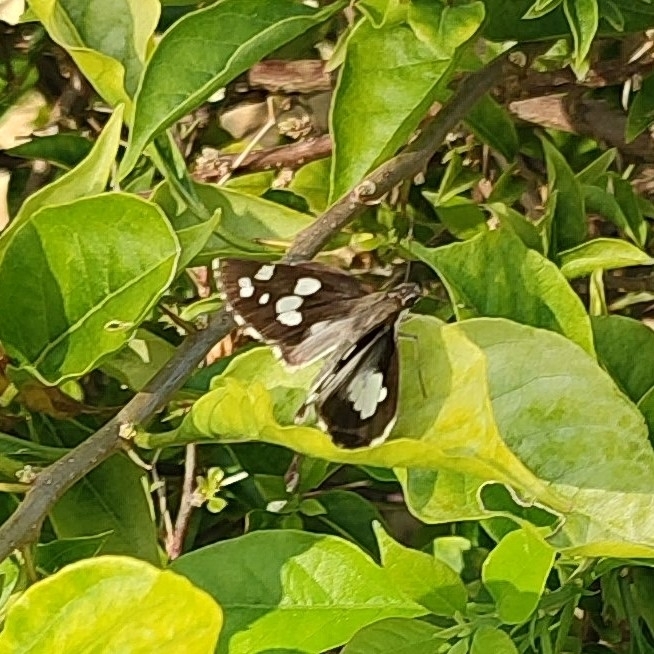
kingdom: Animalia
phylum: Arthropoda
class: Insecta
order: Lepidoptera
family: Hesperiidae
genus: Udaspes
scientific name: Udaspes folus
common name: Grass demon
